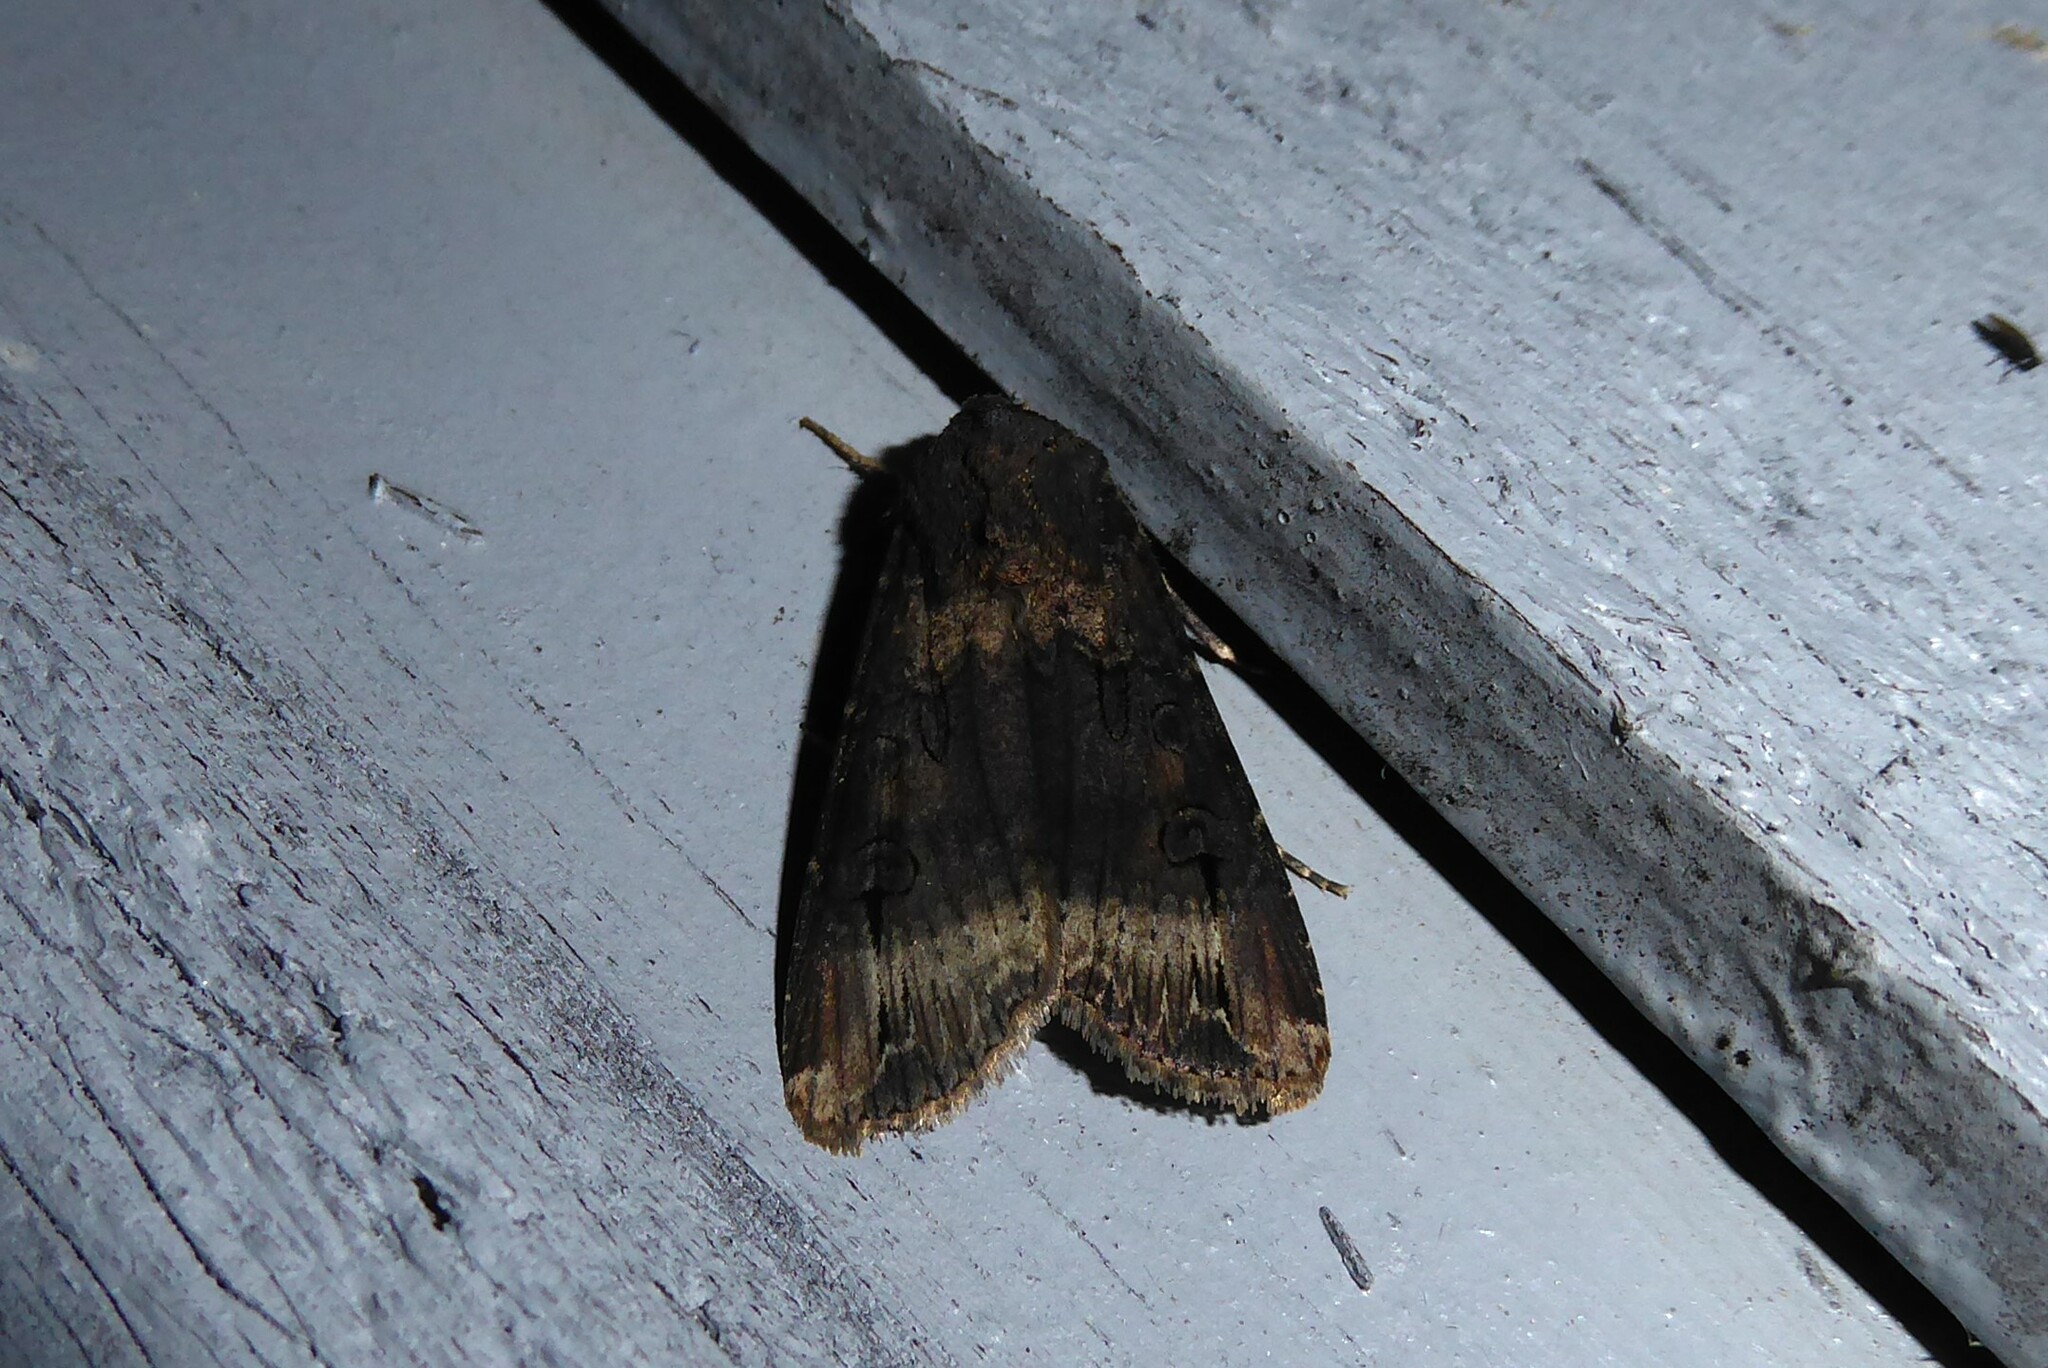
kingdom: Animalia
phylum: Arthropoda
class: Insecta
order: Lepidoptera
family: Noctuidae
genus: Agrotis
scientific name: Agrotis ipsilon
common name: Dark sword-grass
